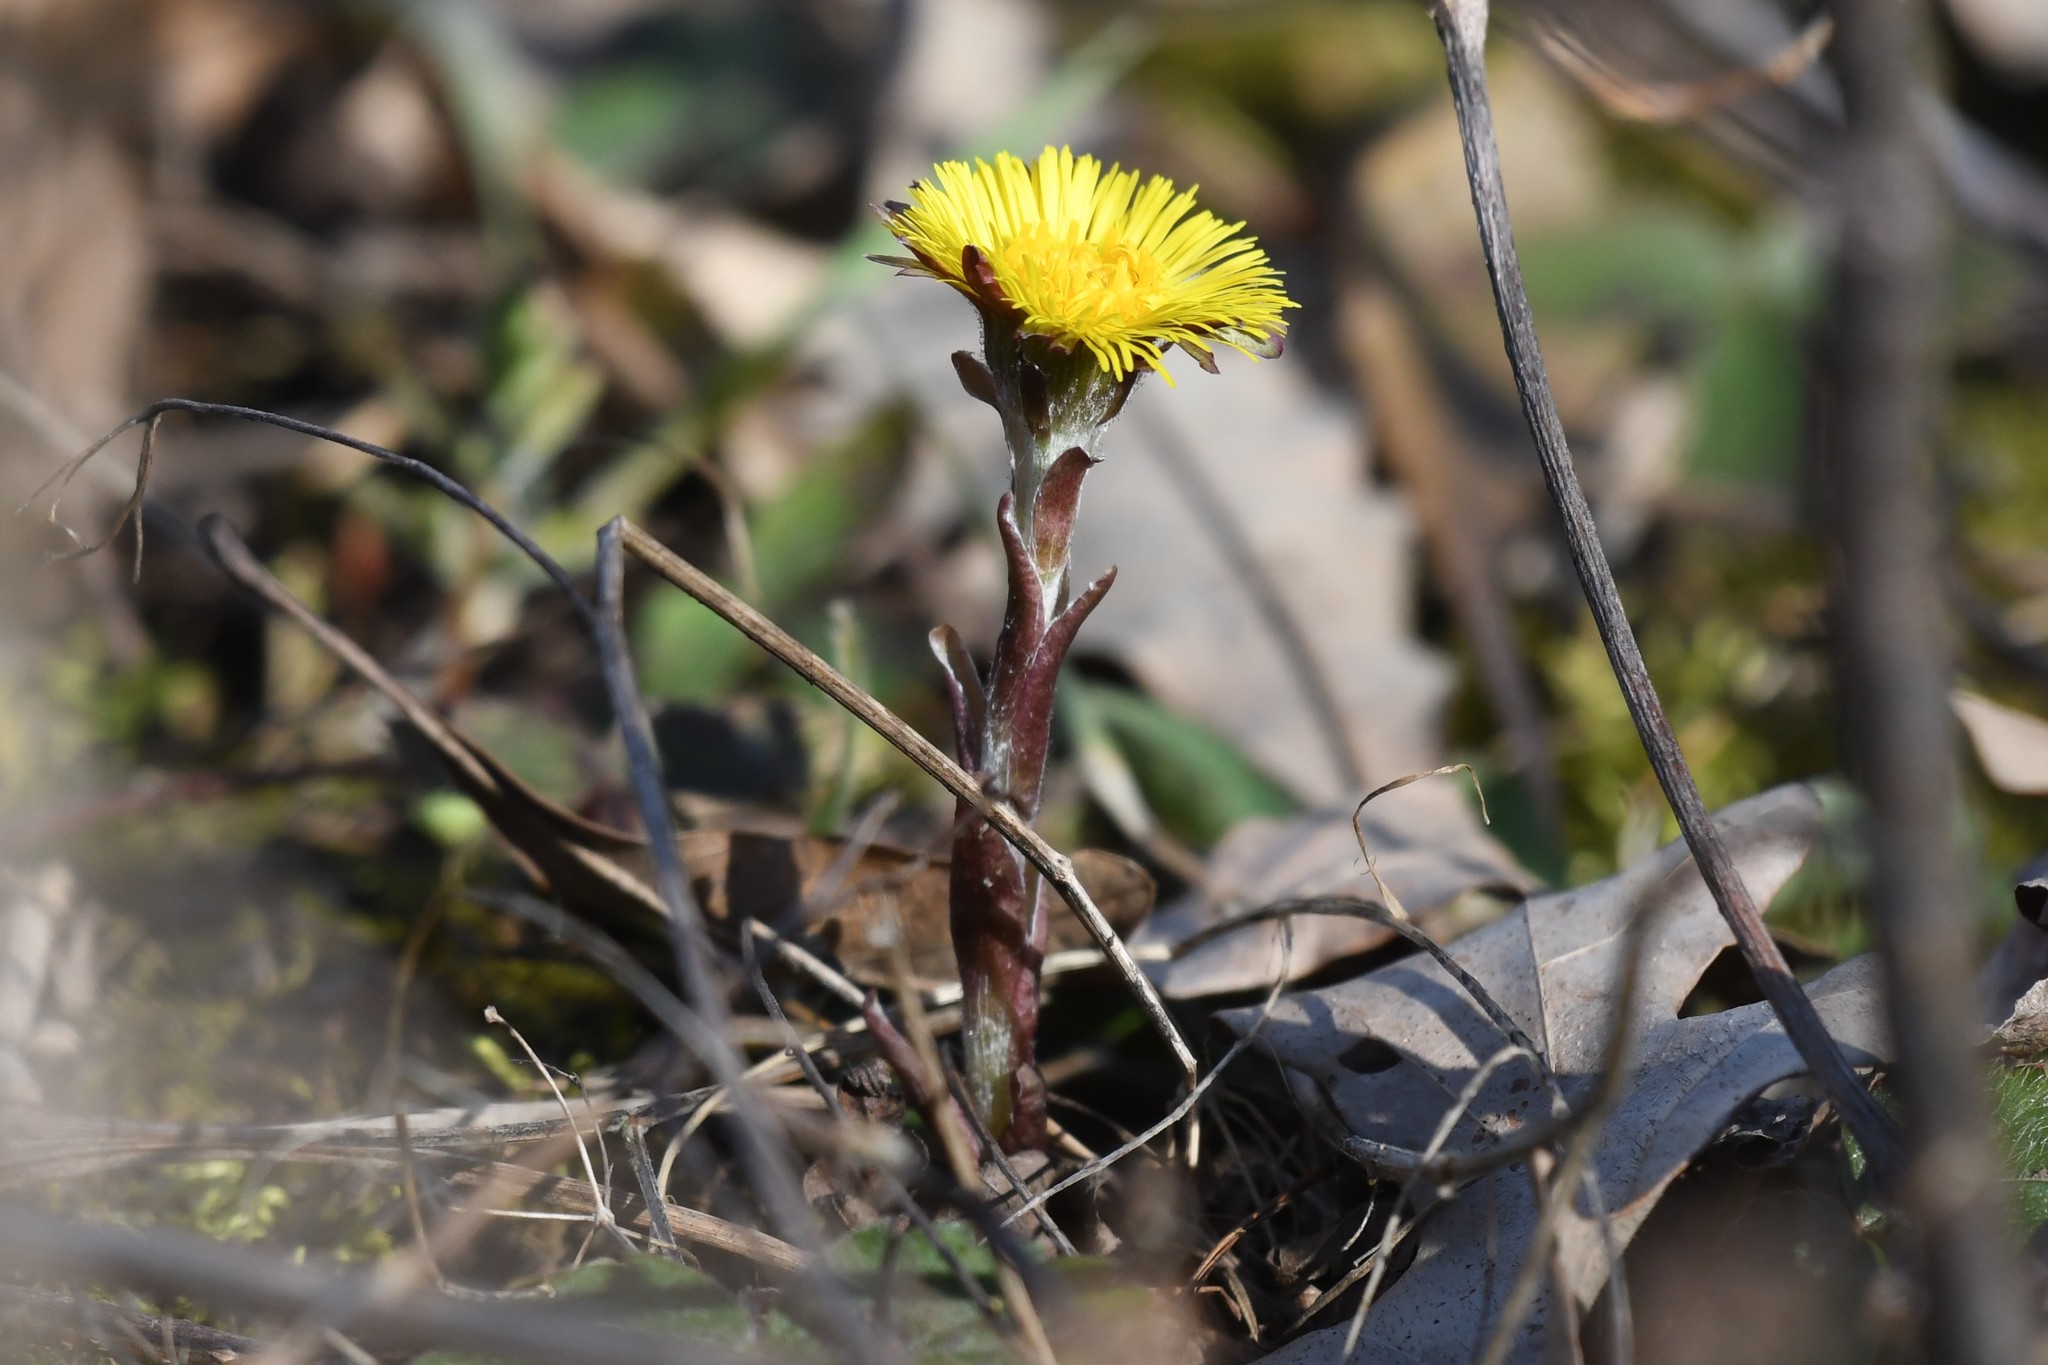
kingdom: Plantae
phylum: Tracheophyta
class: Magnoliopsida
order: Asterales
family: Asteraceae
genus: Tussilago
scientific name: Tussilago farfara
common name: Coltsfoot
